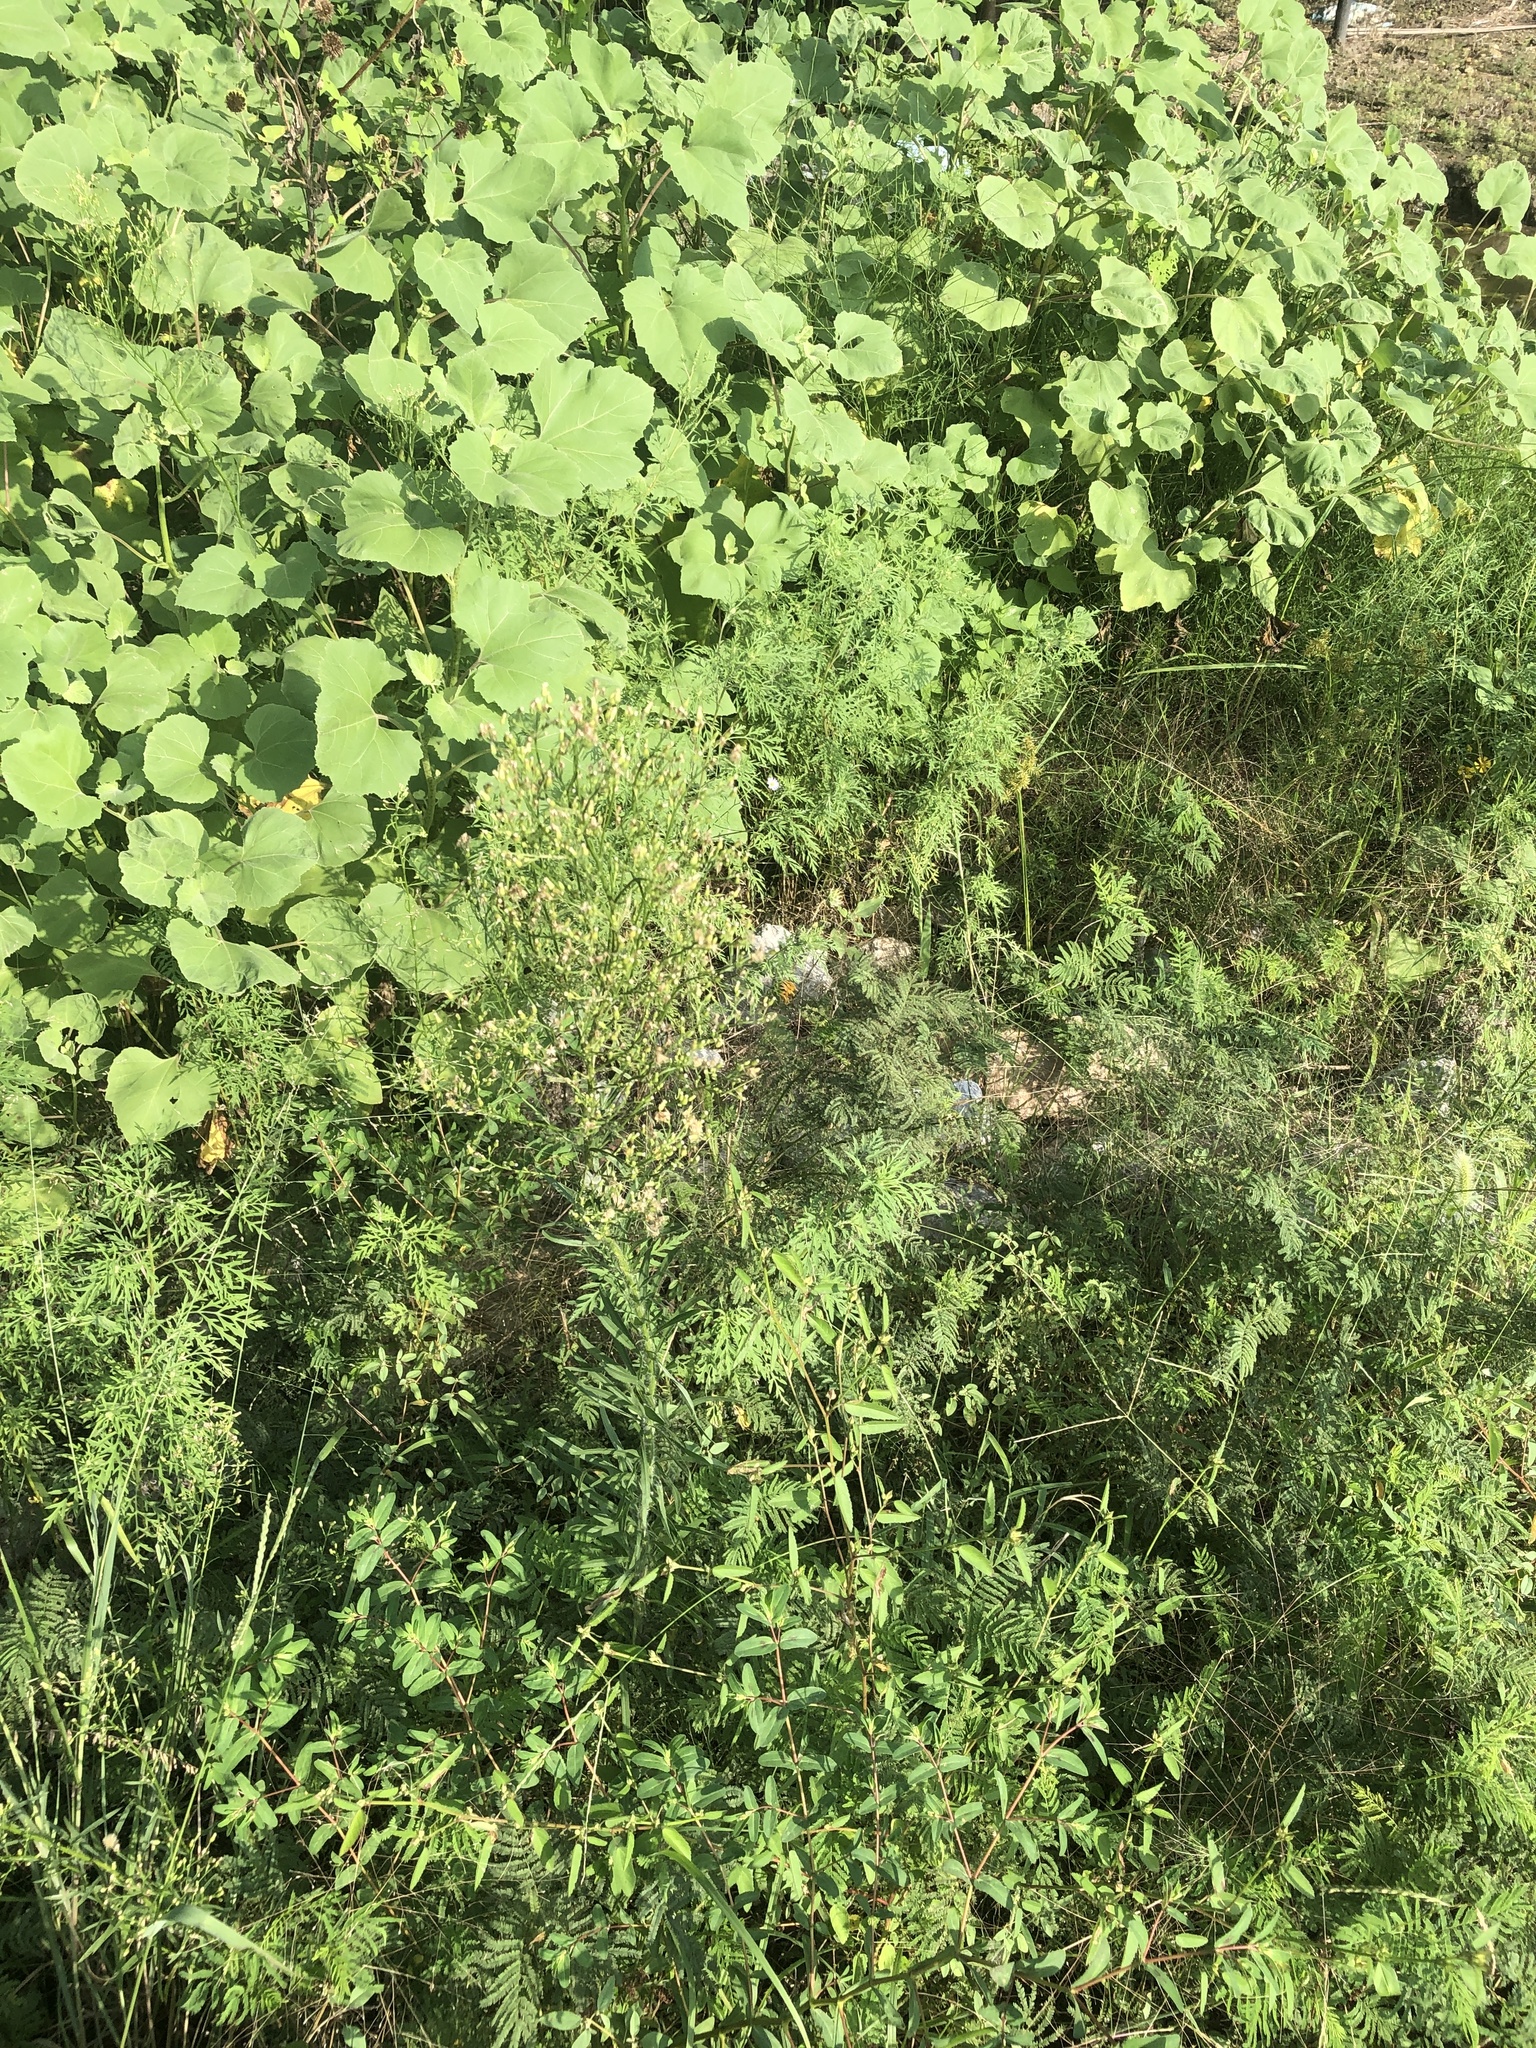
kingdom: Plantae
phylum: Tracheophyta
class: Magnoliopsida
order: Asterales
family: Asteraceae
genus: Erigeron
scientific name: Erigeron canadensis
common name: Canadian fleabane
